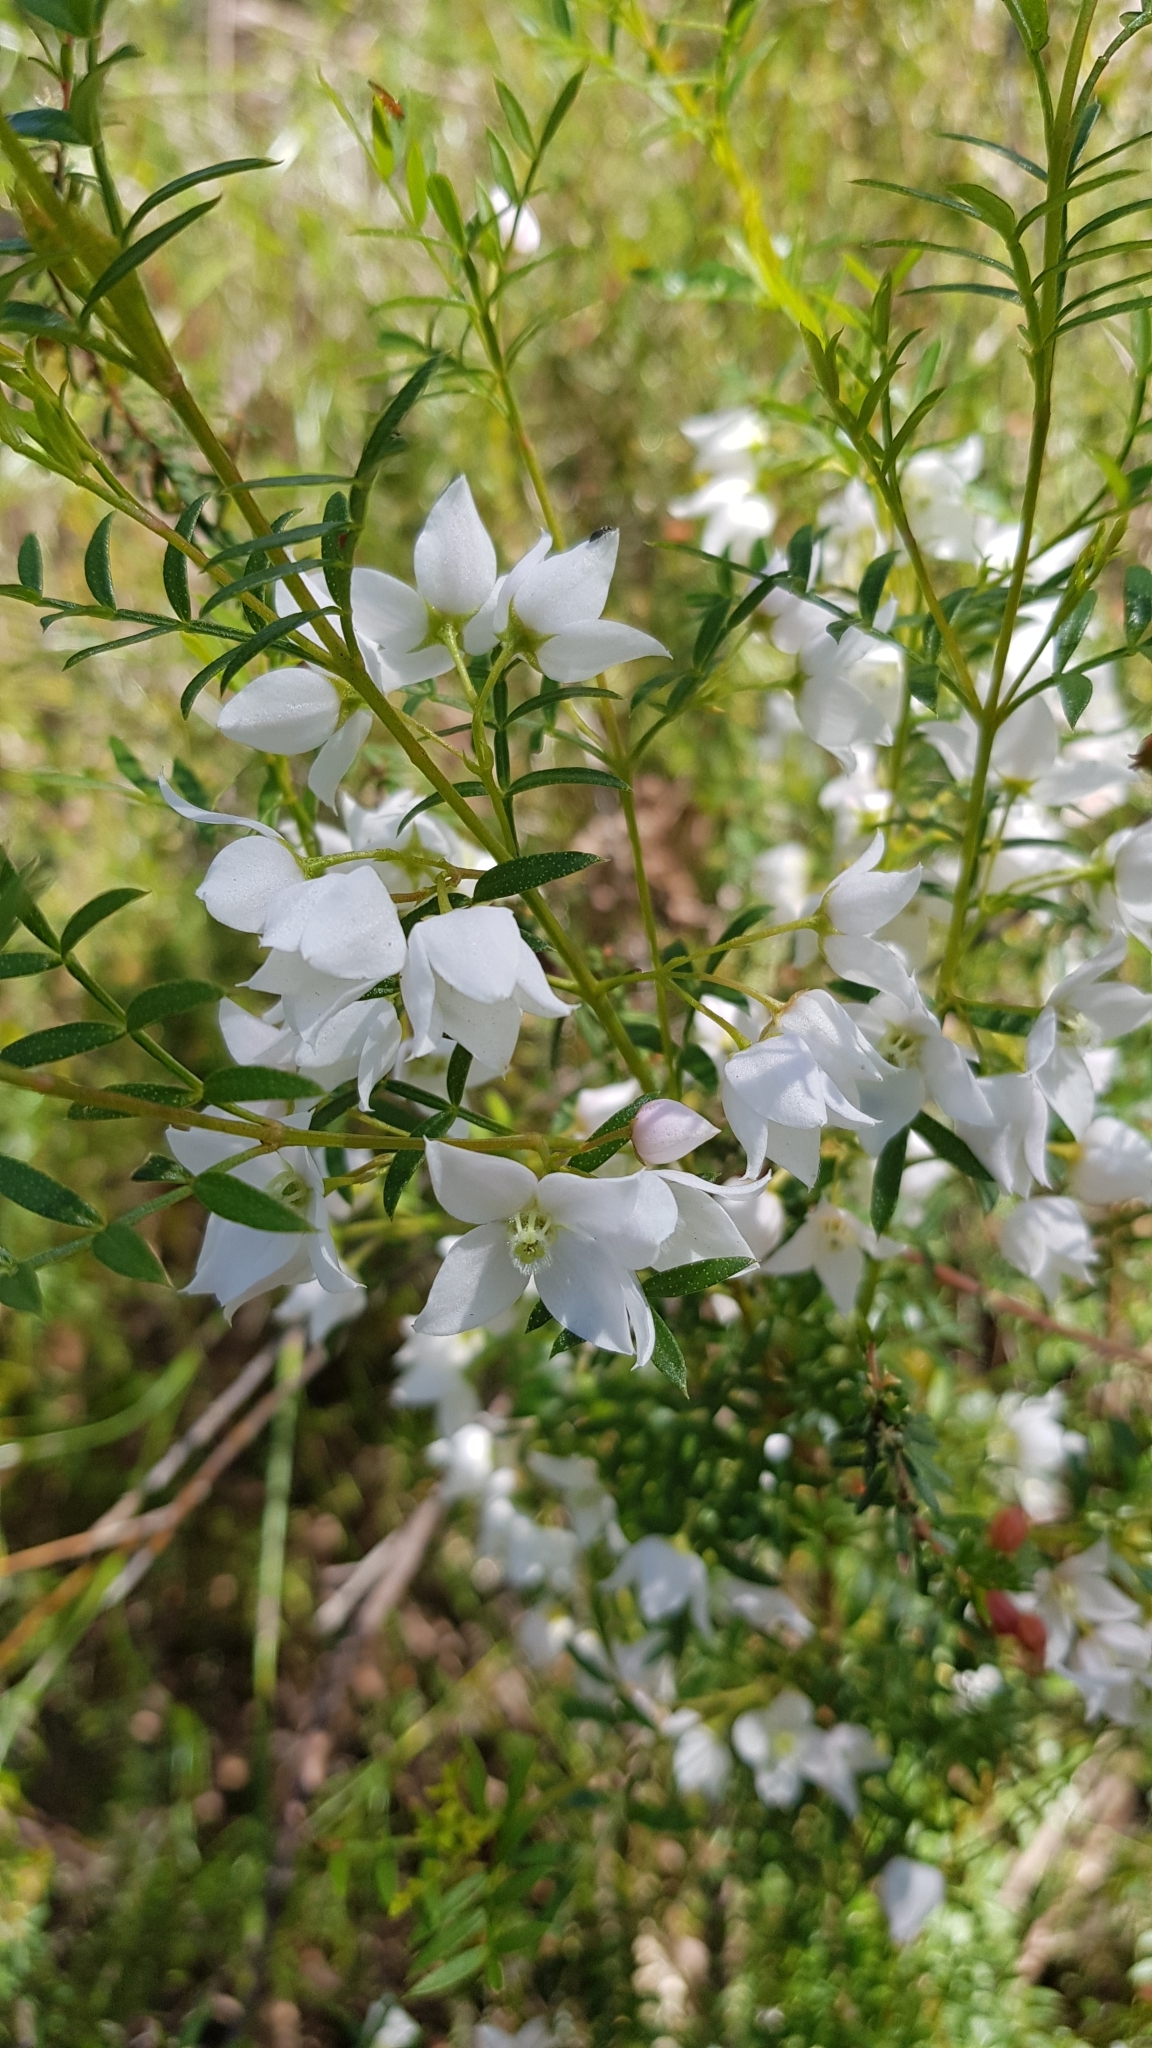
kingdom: Plantae
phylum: Tracheophyta
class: Magnoliopsida
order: Sapindales
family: Rutaceae
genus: Boronia
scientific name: Boronia pinnata
